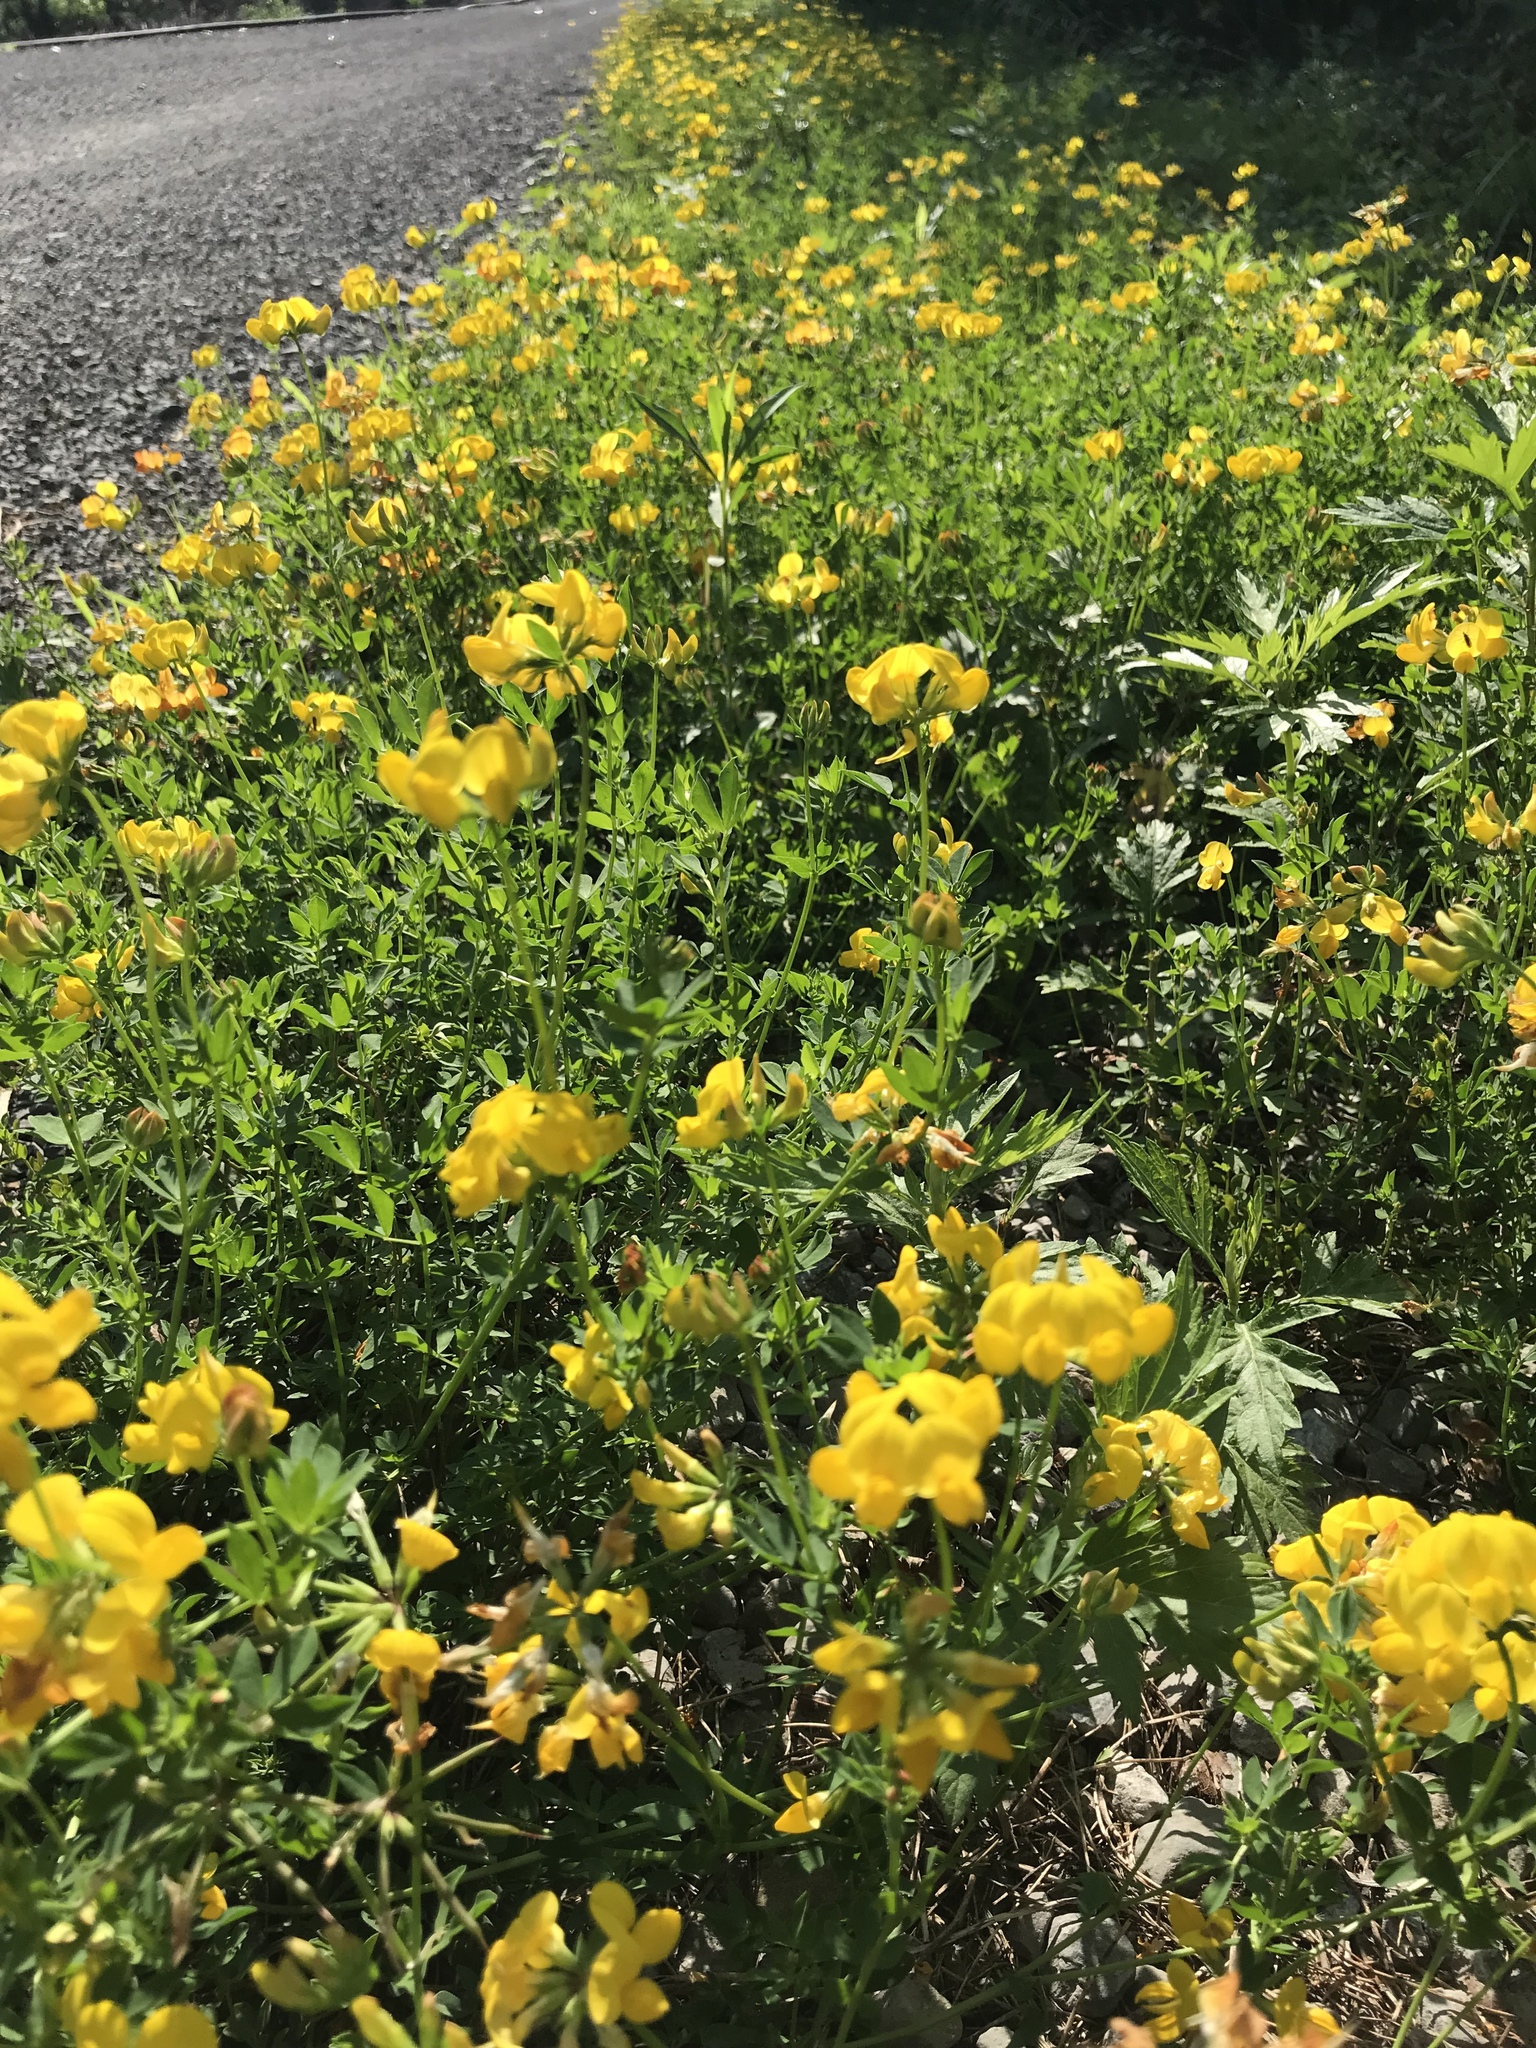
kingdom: Plantae
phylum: Tracheophyta
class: Magnoliopsida
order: Fabales
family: Fabaceae
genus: Lotus
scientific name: Lotus corniculatus
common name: Common bird's-foot-trefoil
